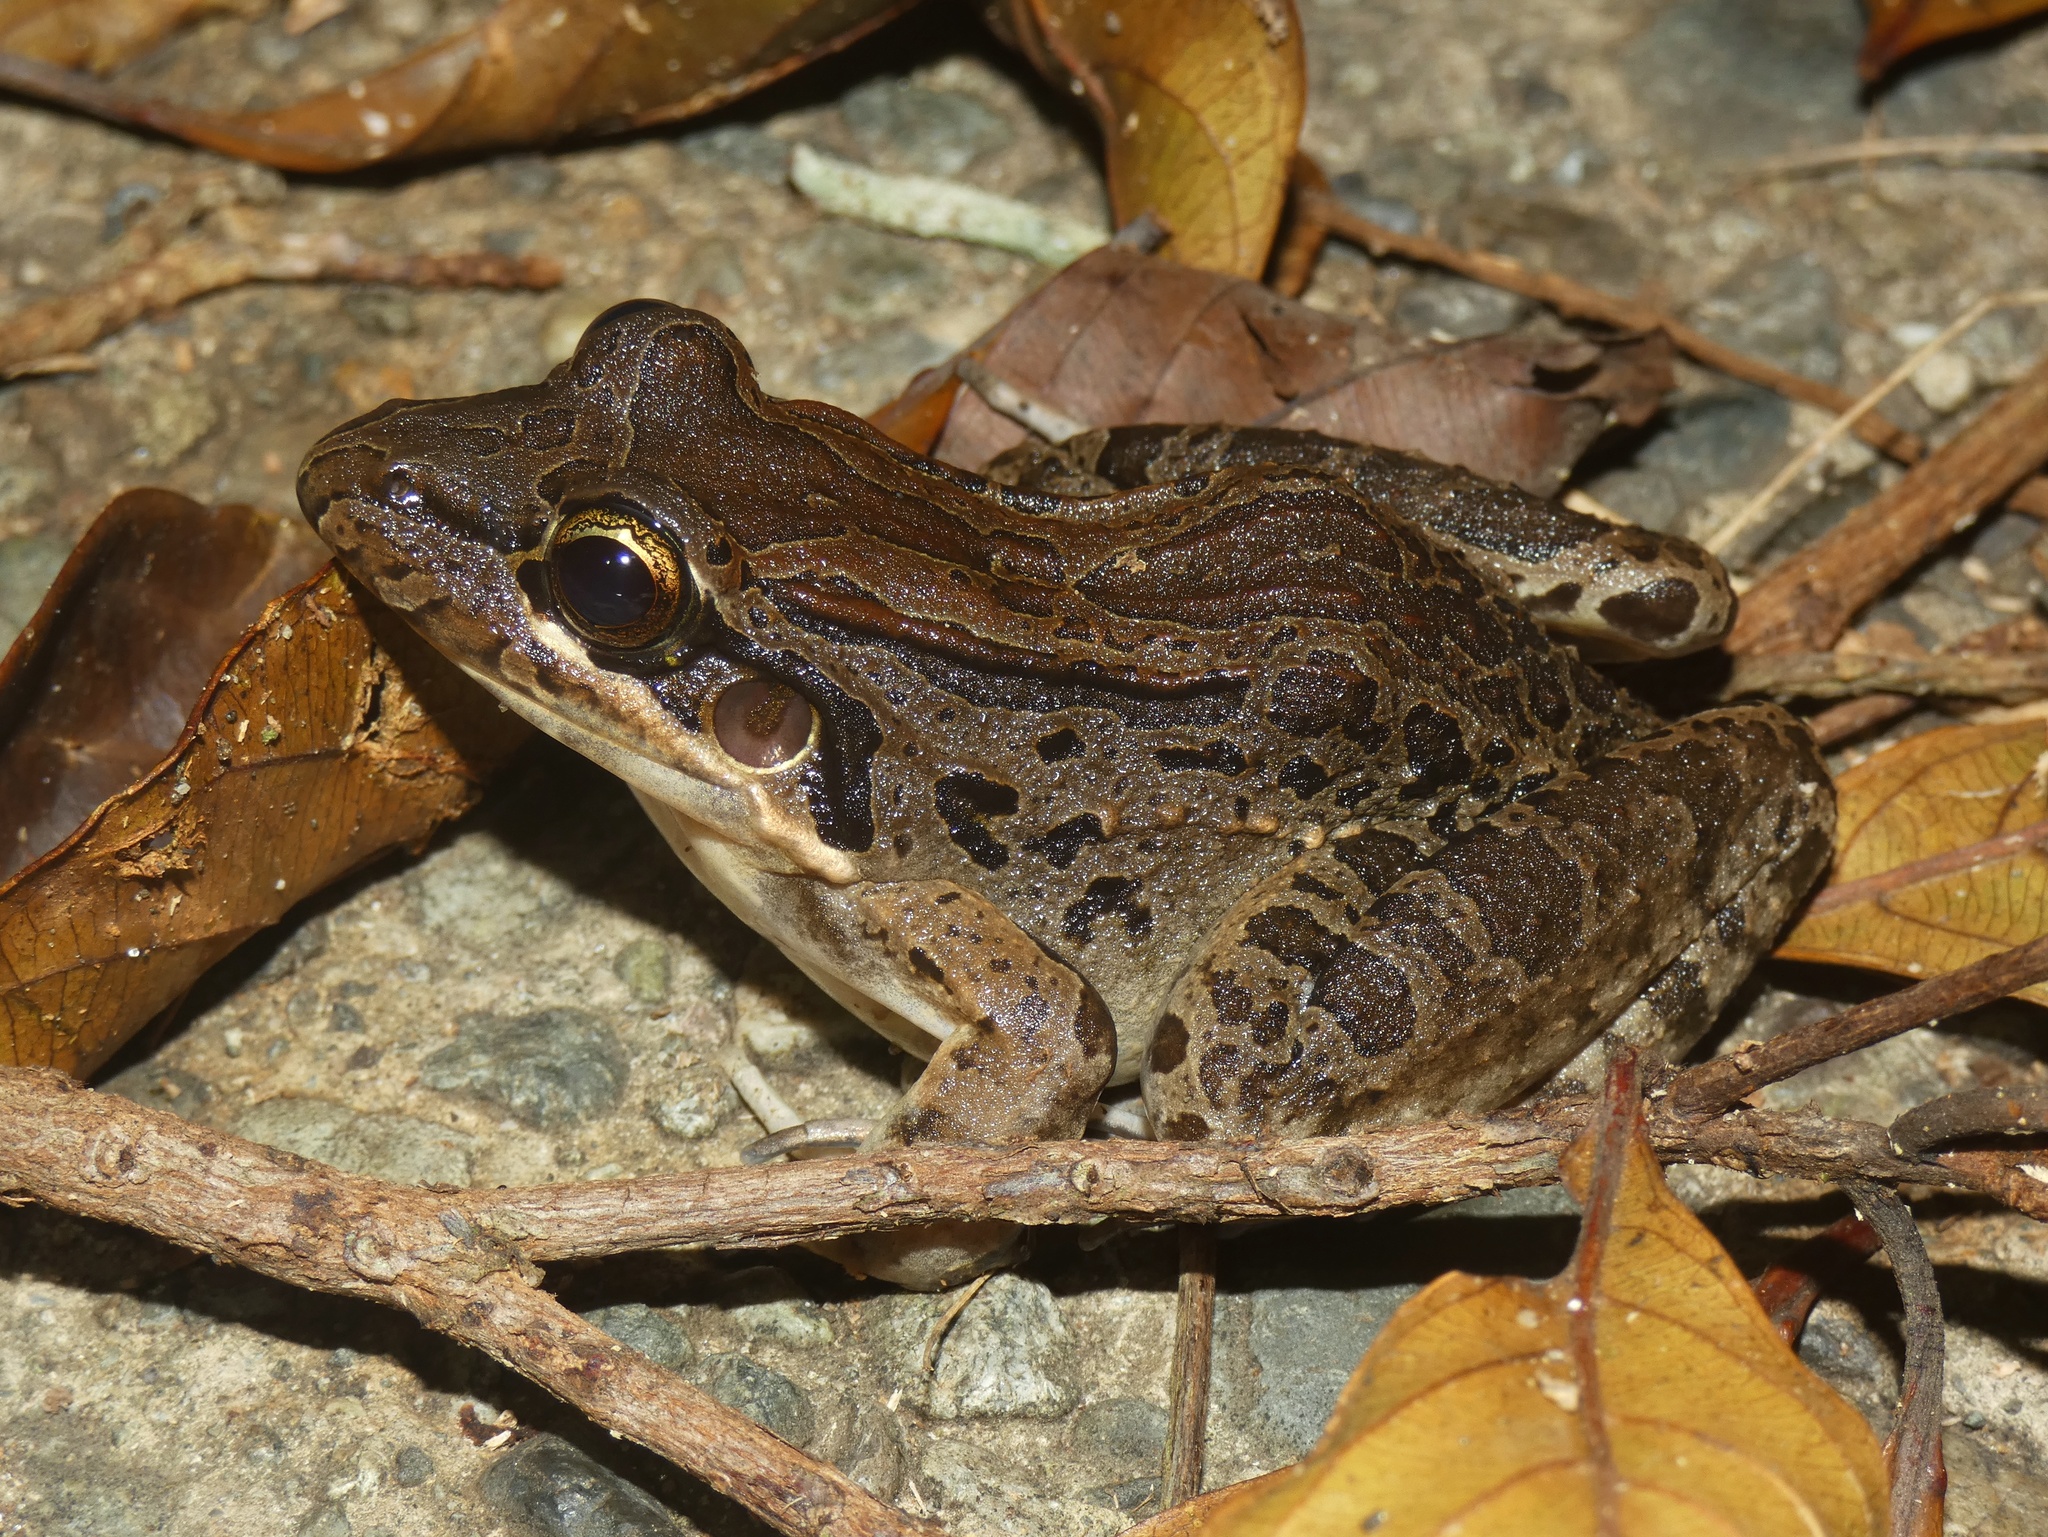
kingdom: Animalia
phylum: Chordata
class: Amphibia
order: Anura
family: Leptodactylidae
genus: Leptodactylus
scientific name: Leptodactylus fragilis
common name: Mexican white-lipped frog
